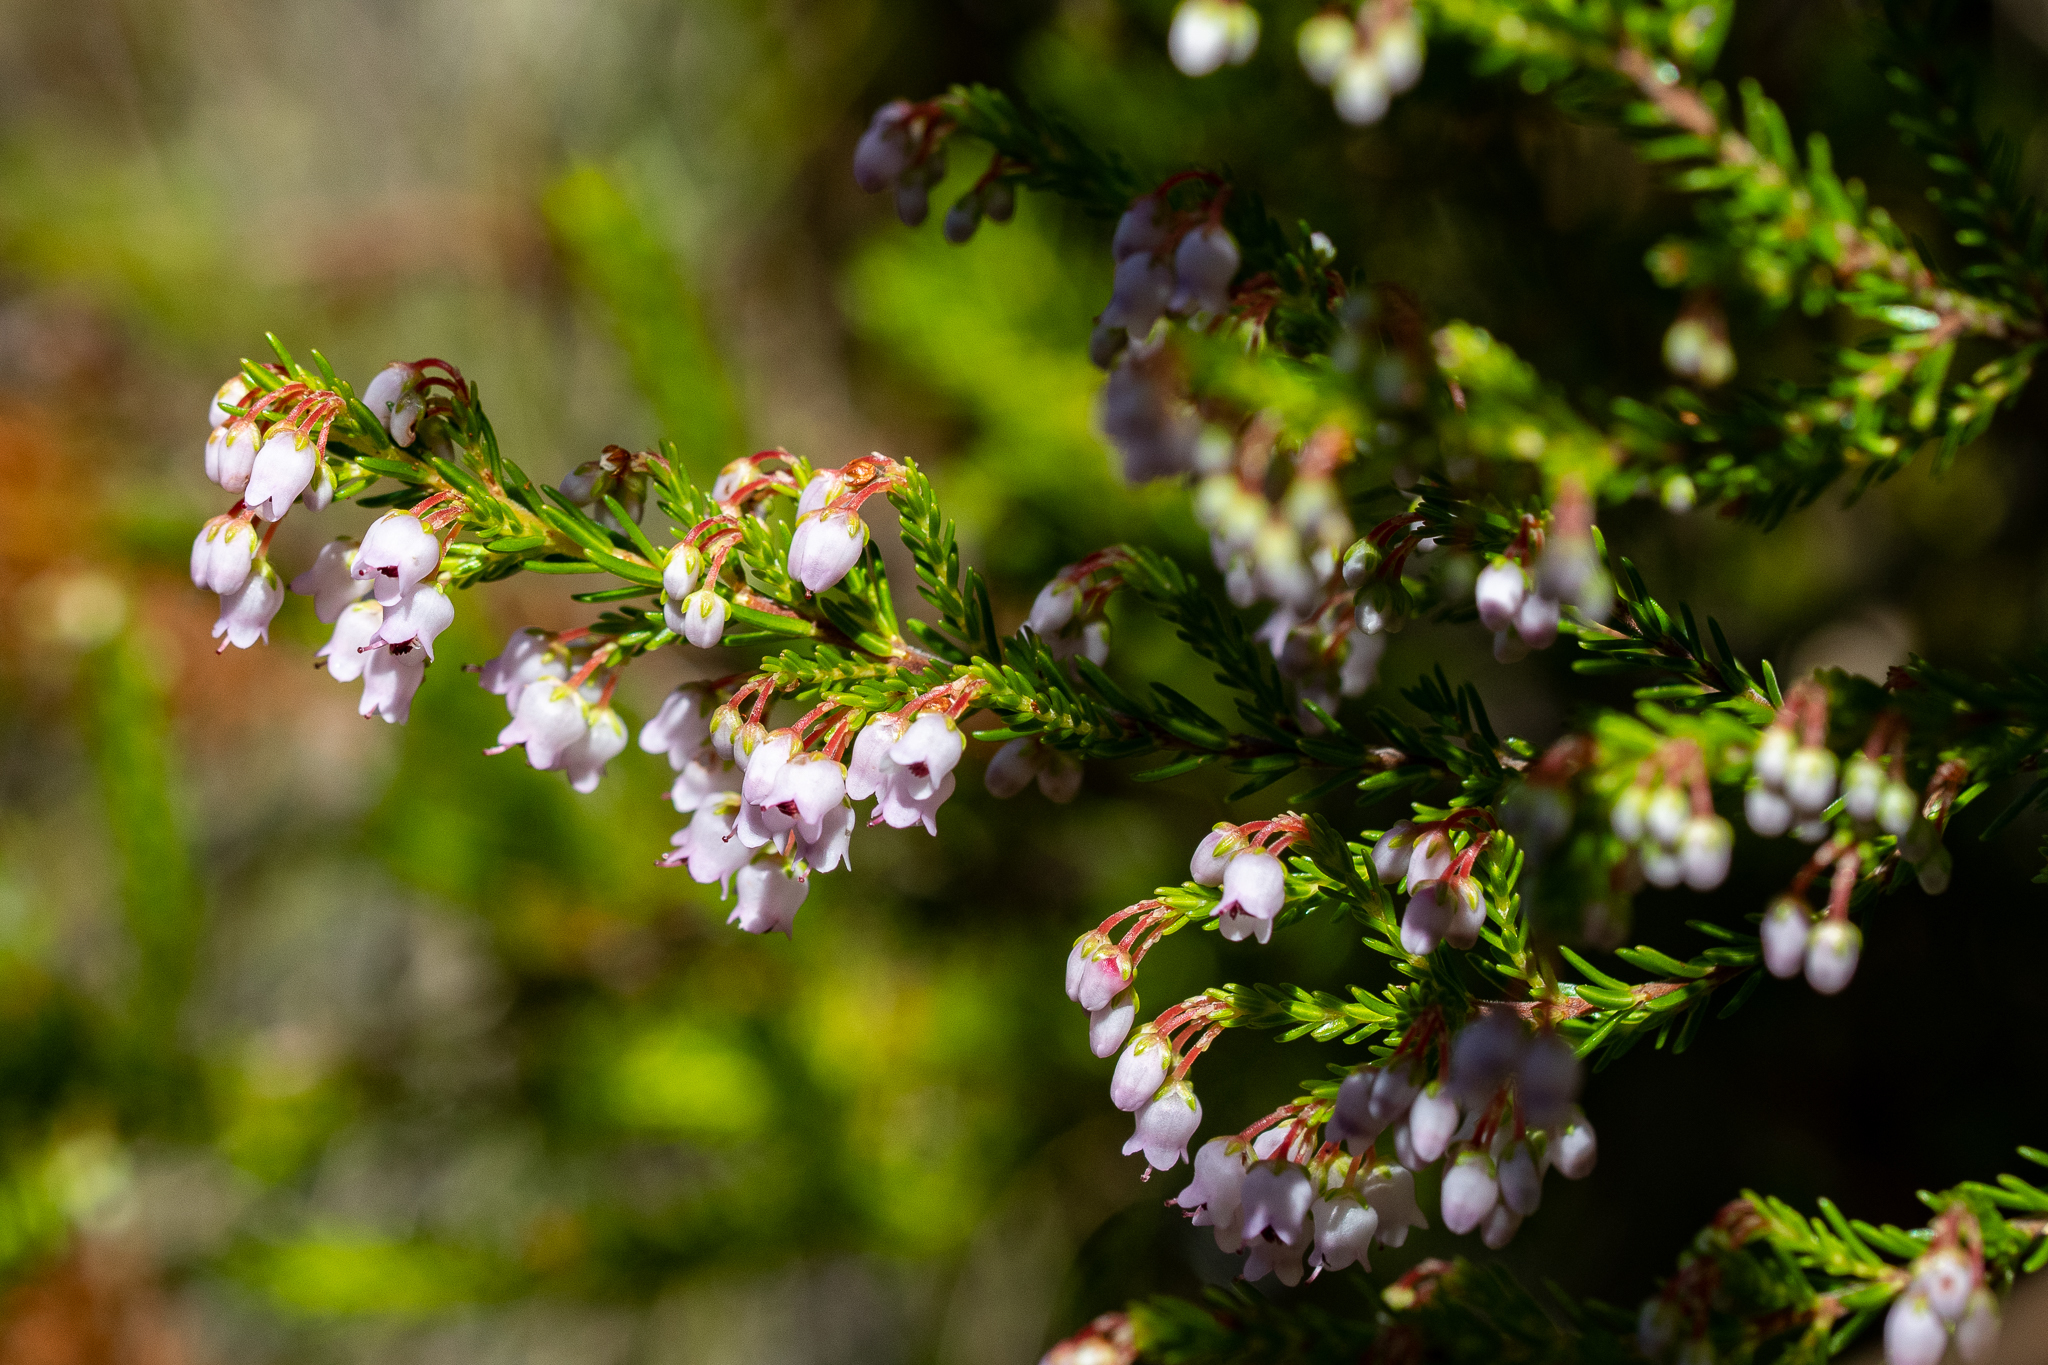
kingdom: Plantae
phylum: Tracheophyta
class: Magnoliopsida
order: Ericales
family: Ericaceae
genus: Erica
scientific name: Erica curvirostris
